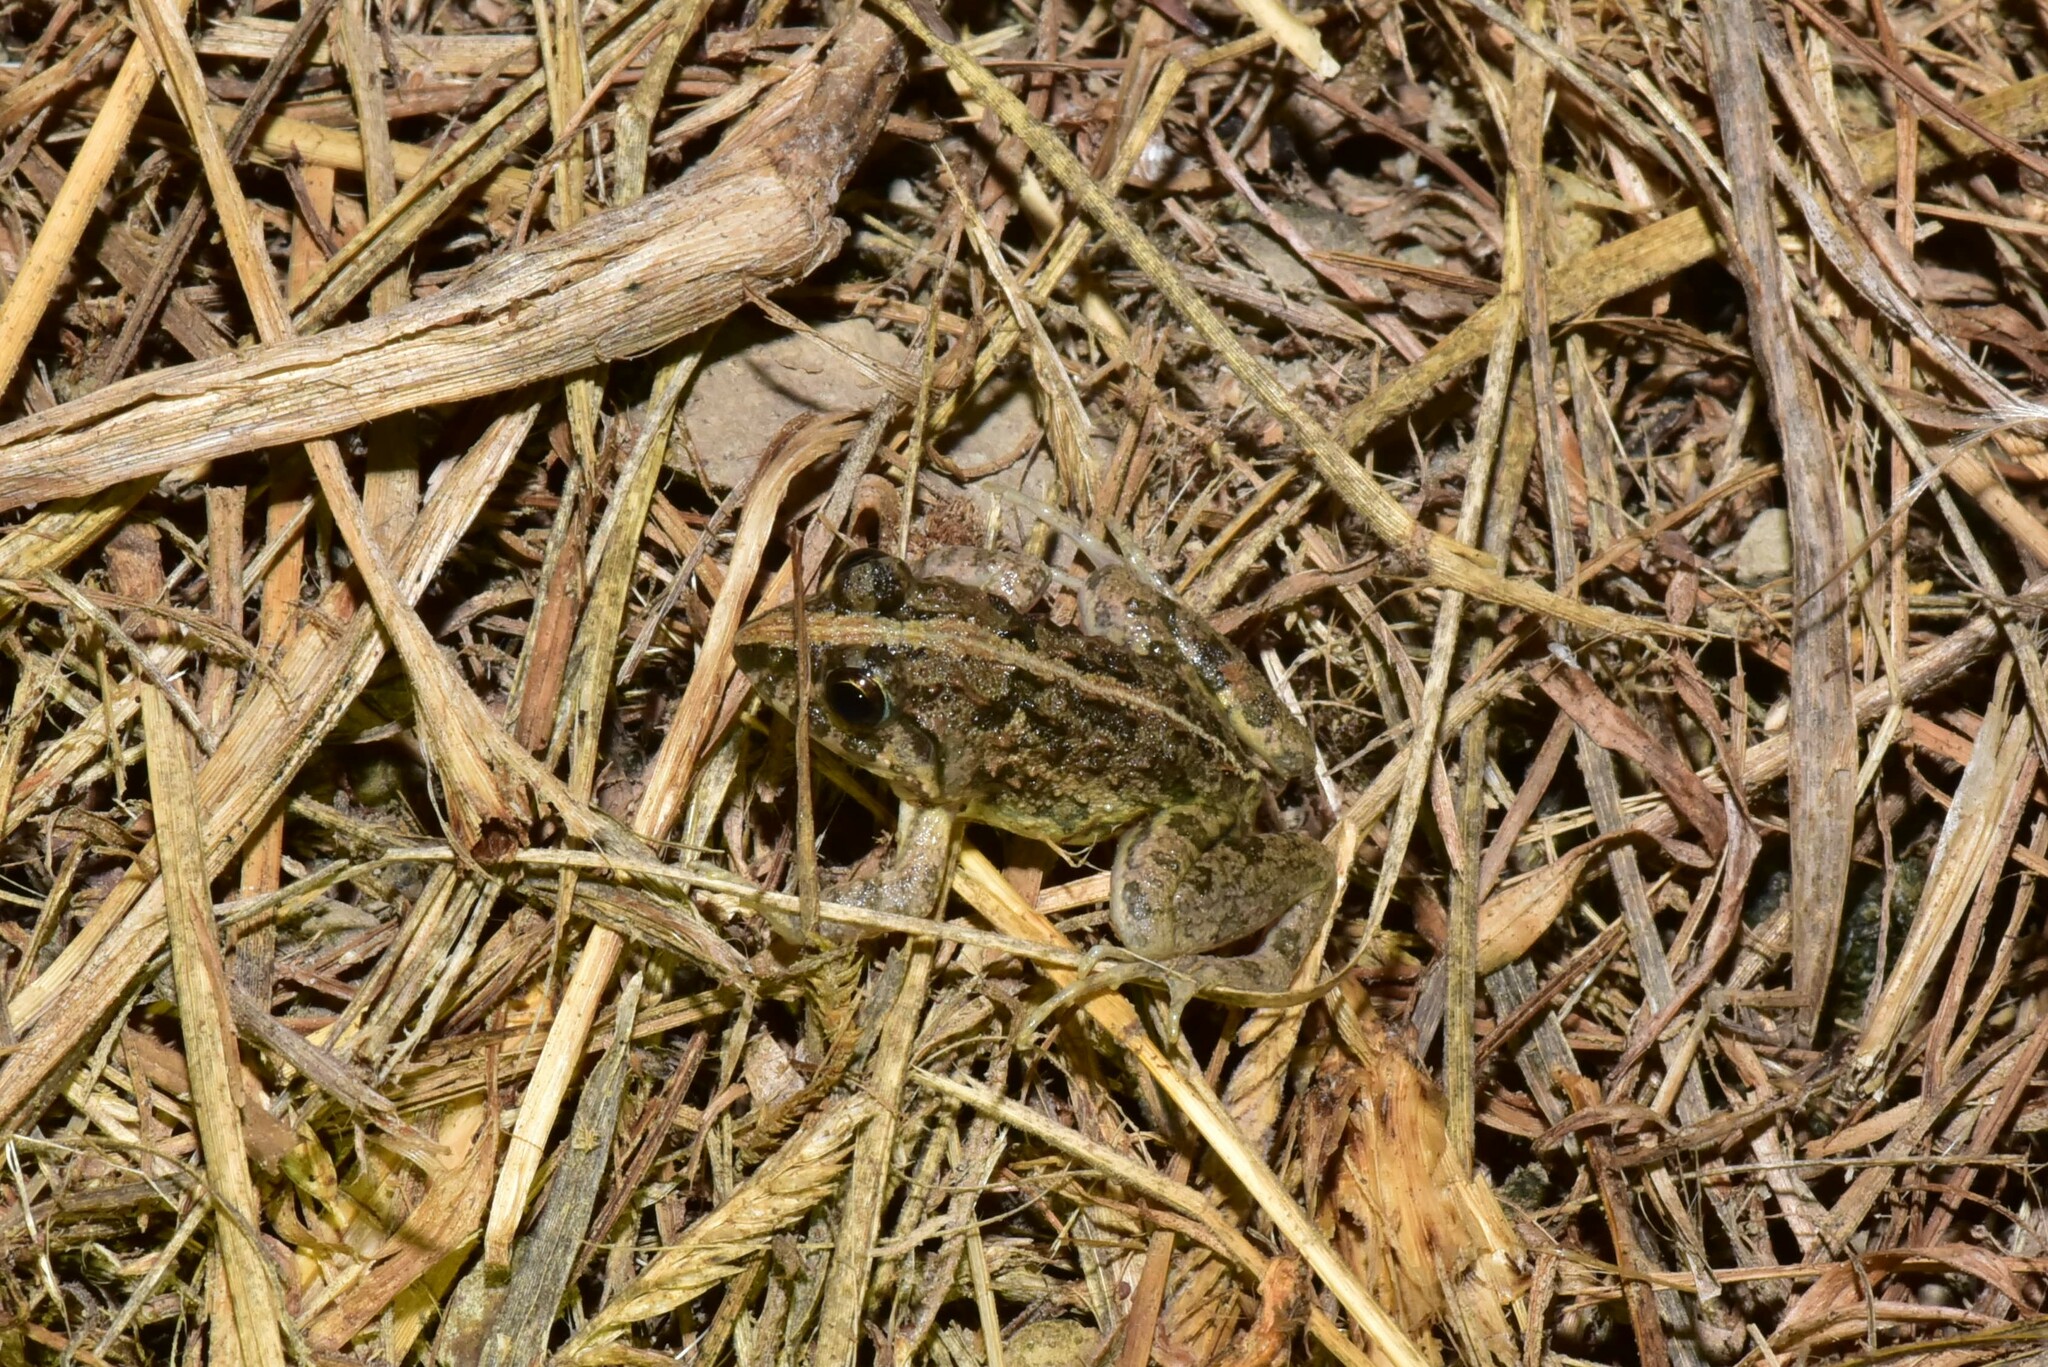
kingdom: Animalia
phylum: Chordata
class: Amphibia
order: Anura
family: Dicroglossidae
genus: Fejervarya
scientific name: Fejervarya limnocharis
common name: Asian grass frog/common pond frog/field frog/grass frog/indian rice frog
